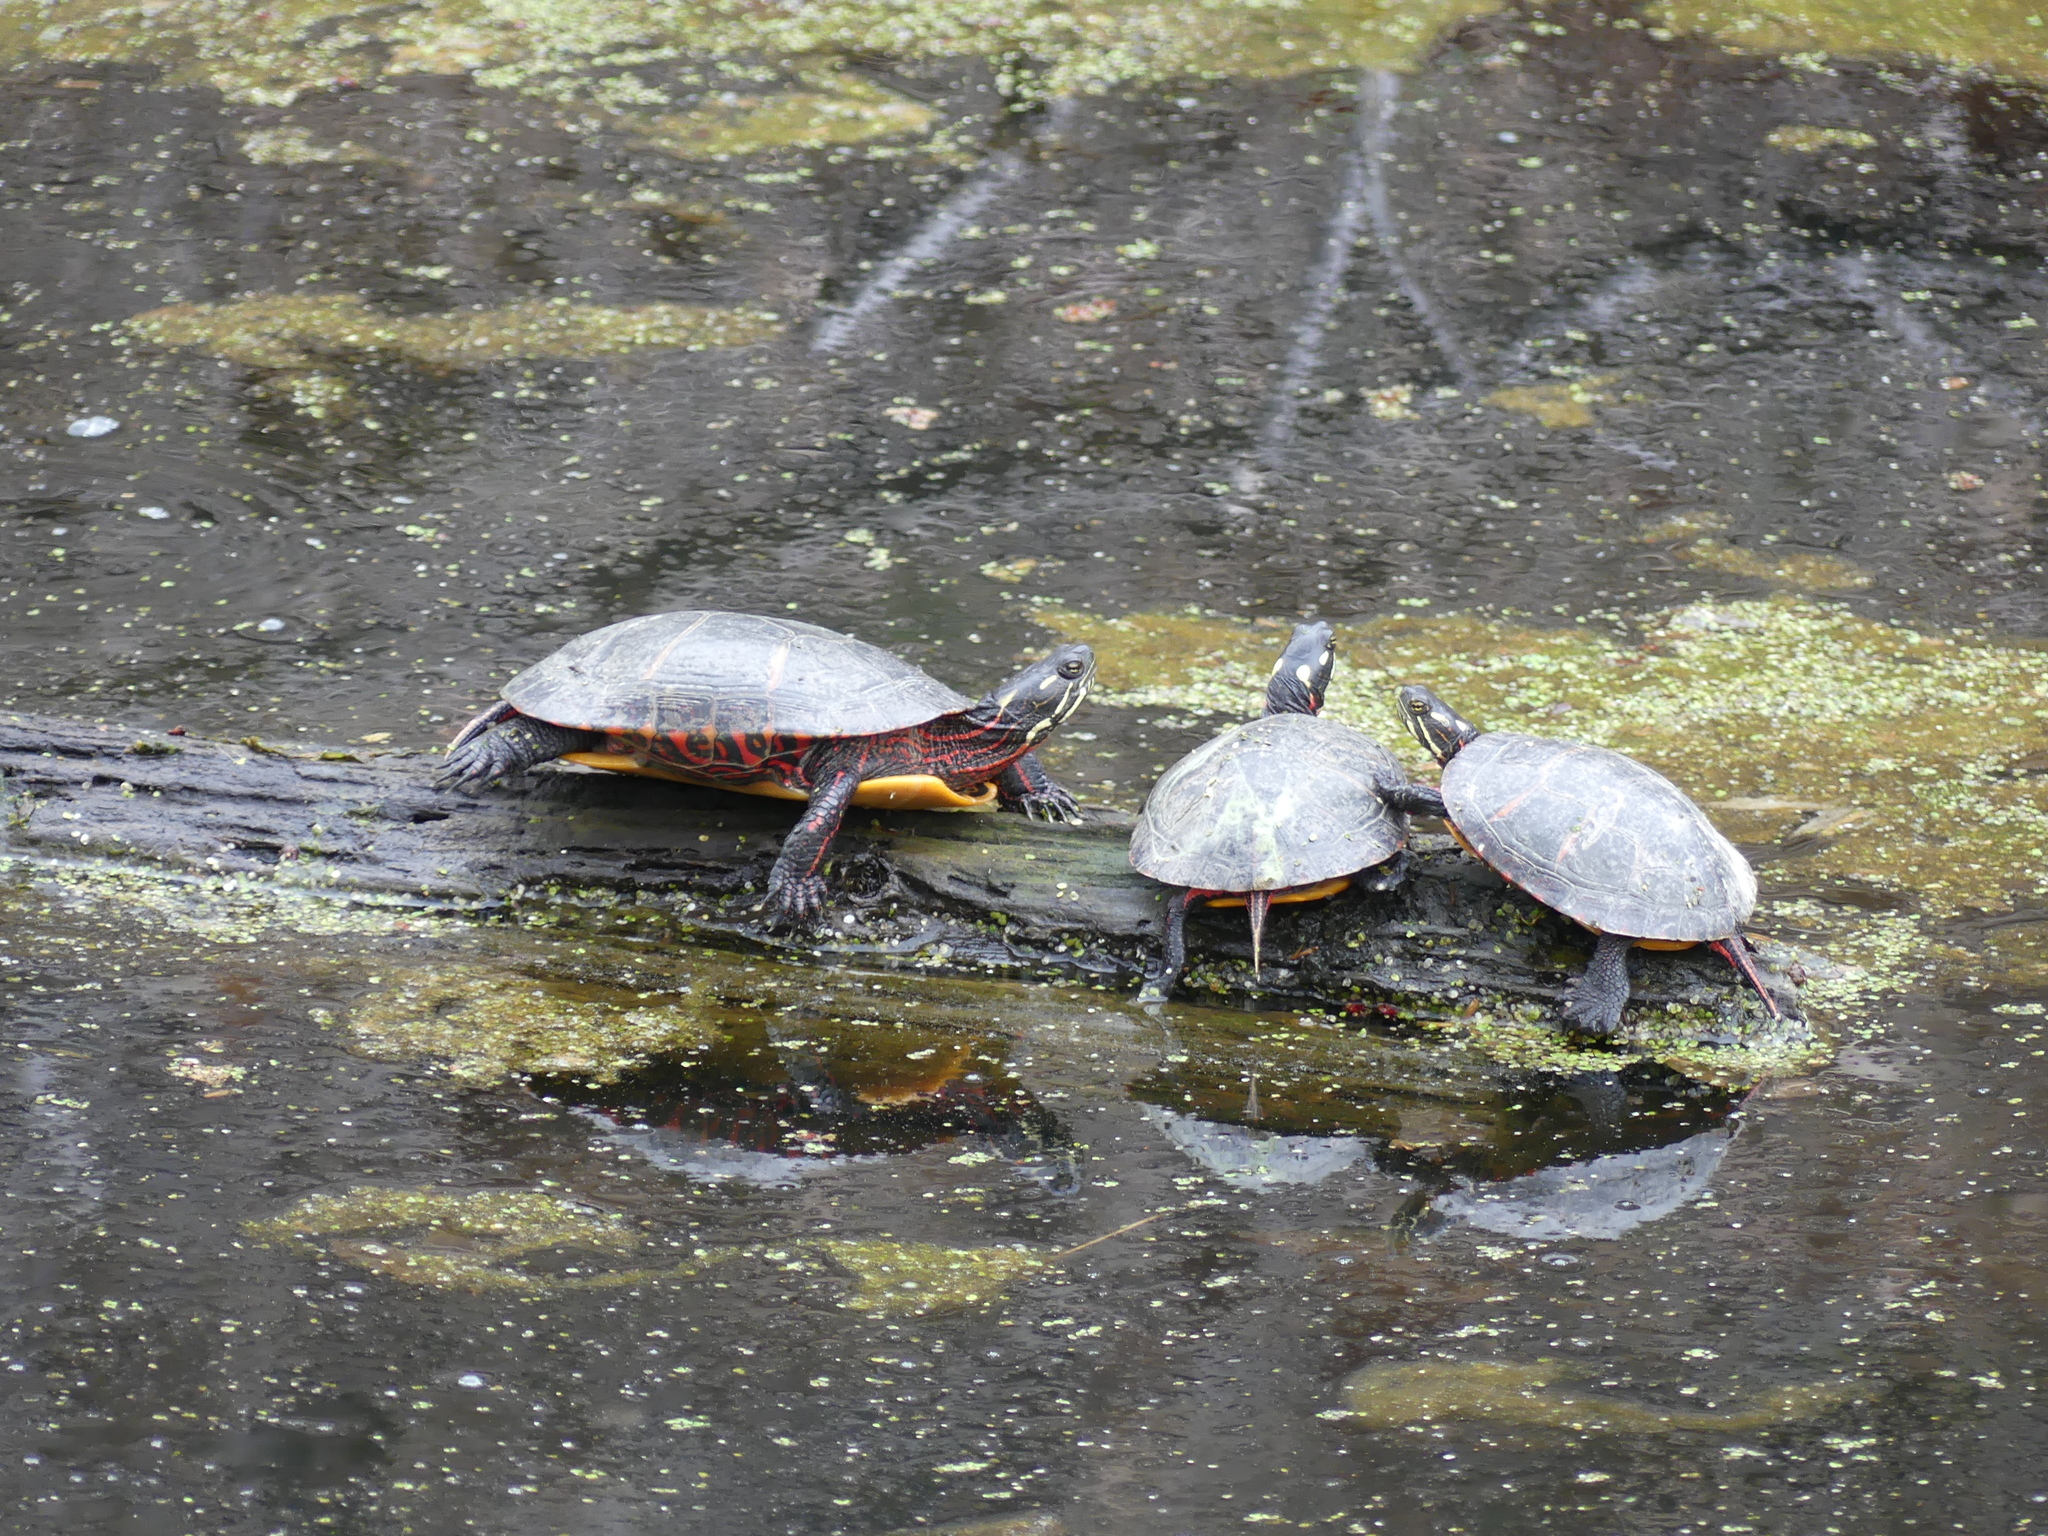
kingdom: Animalia
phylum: Chordata
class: Testudines
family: Emydidae
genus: Chrysemys
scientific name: Chrysemys picta
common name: Painted turtle
